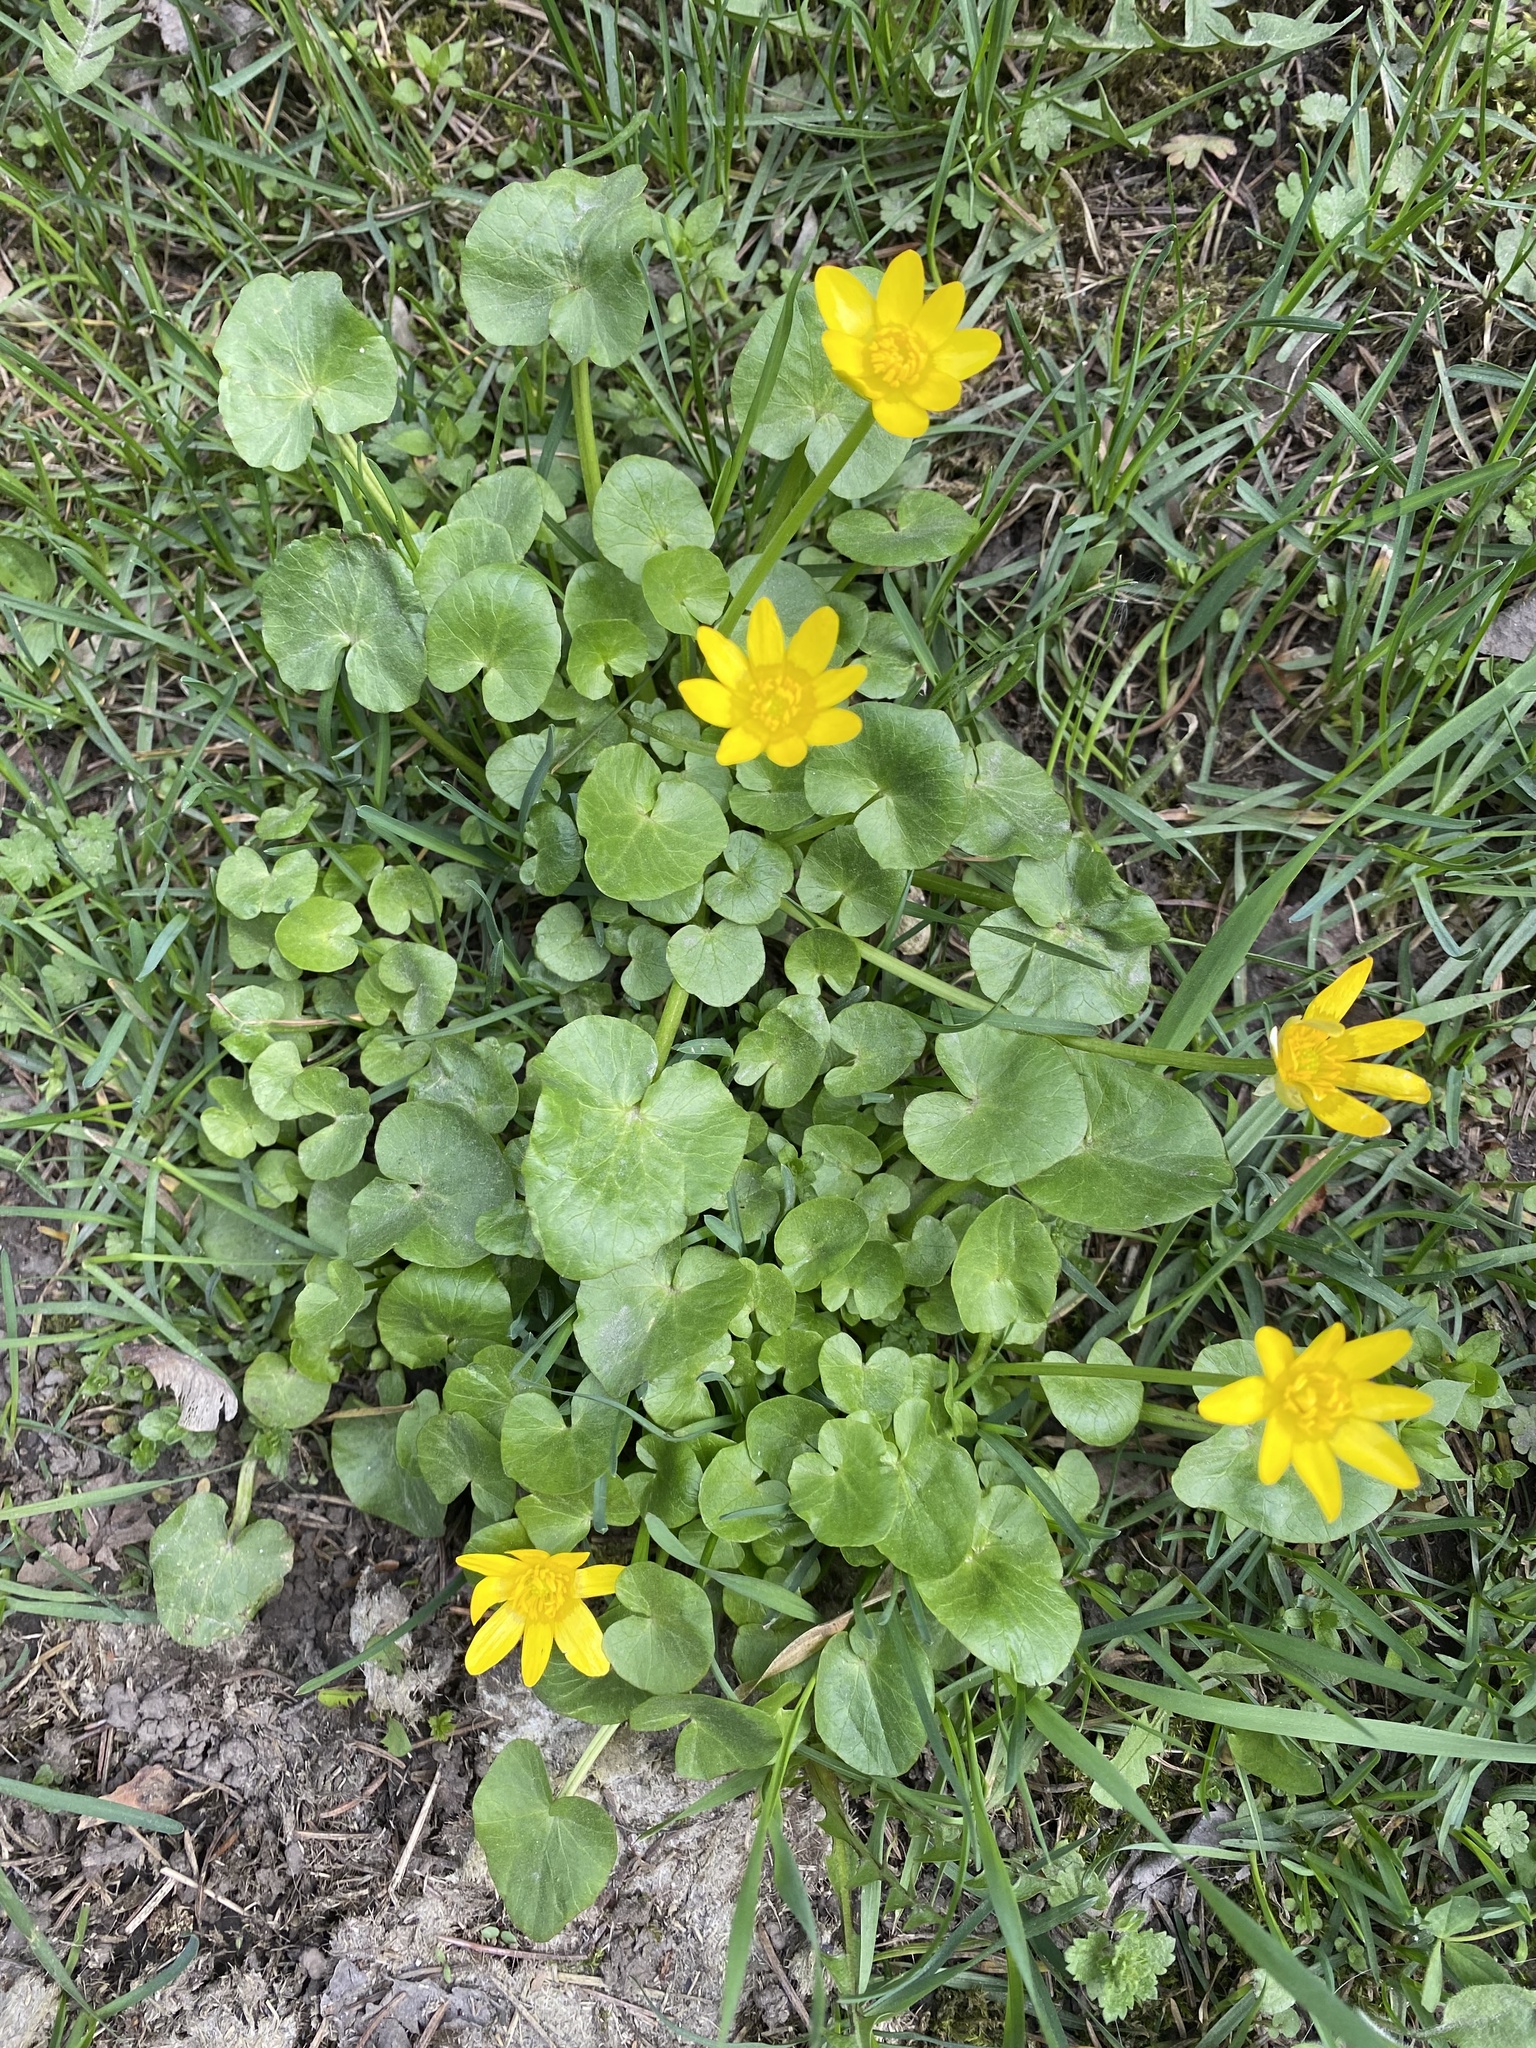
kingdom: Plantae
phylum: Tracheophyta
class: Magnoliopsida
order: Ranunculales
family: Ranunculaceae
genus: Ficaria
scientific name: Ficaria verna
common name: Lesser celandine
